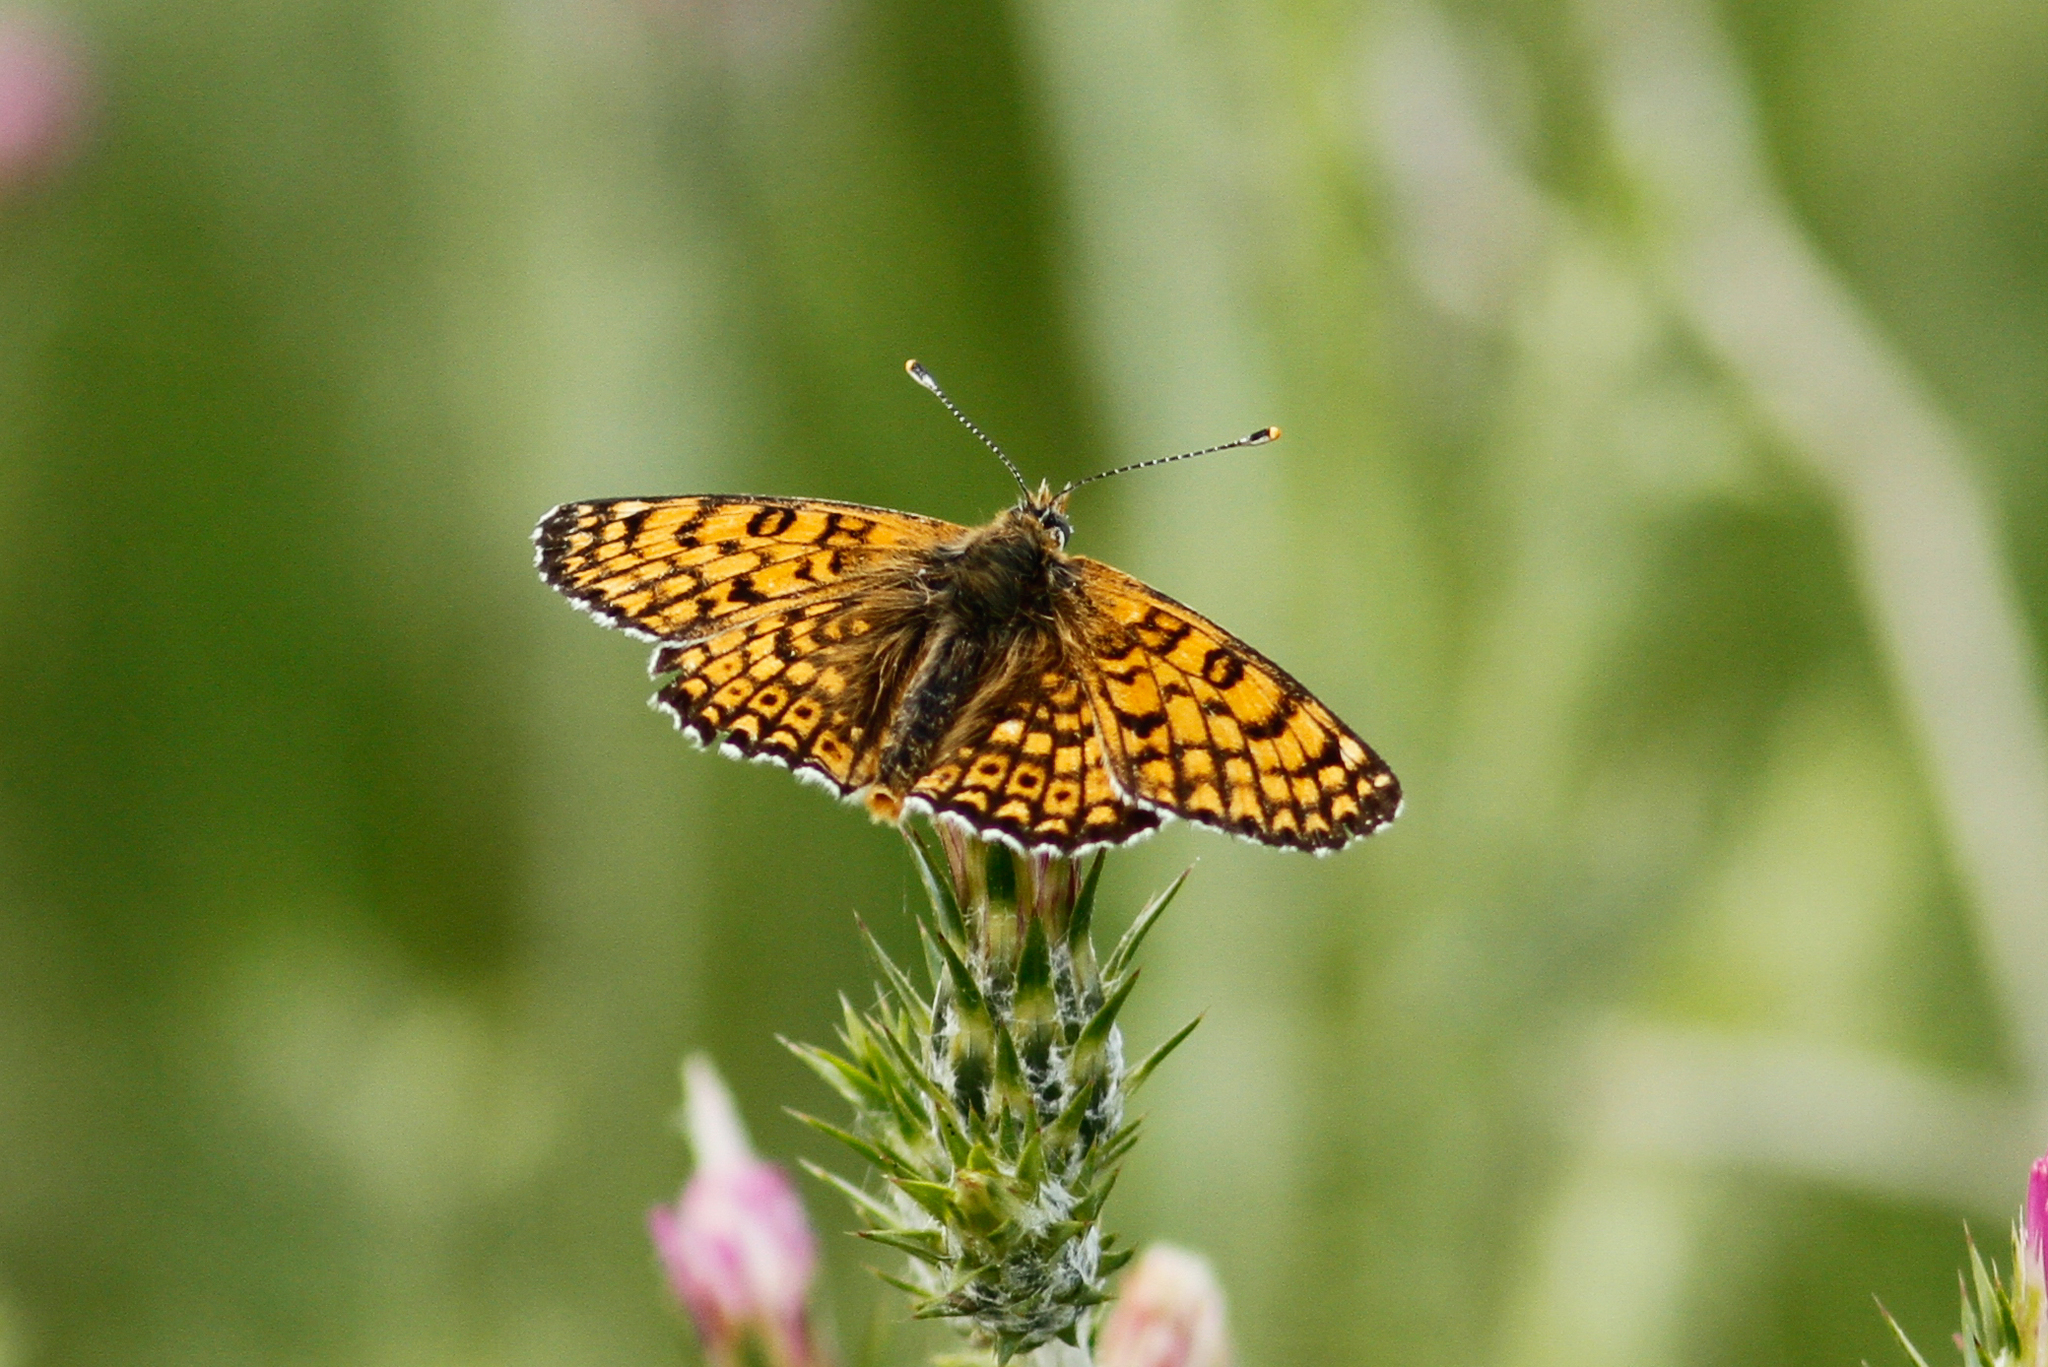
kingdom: Animalia
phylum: Arthropoda
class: Insecta
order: Lepidoptera
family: Nymphalidae
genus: Melitaea
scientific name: Melitaea cinxia
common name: Glanville fritillary
